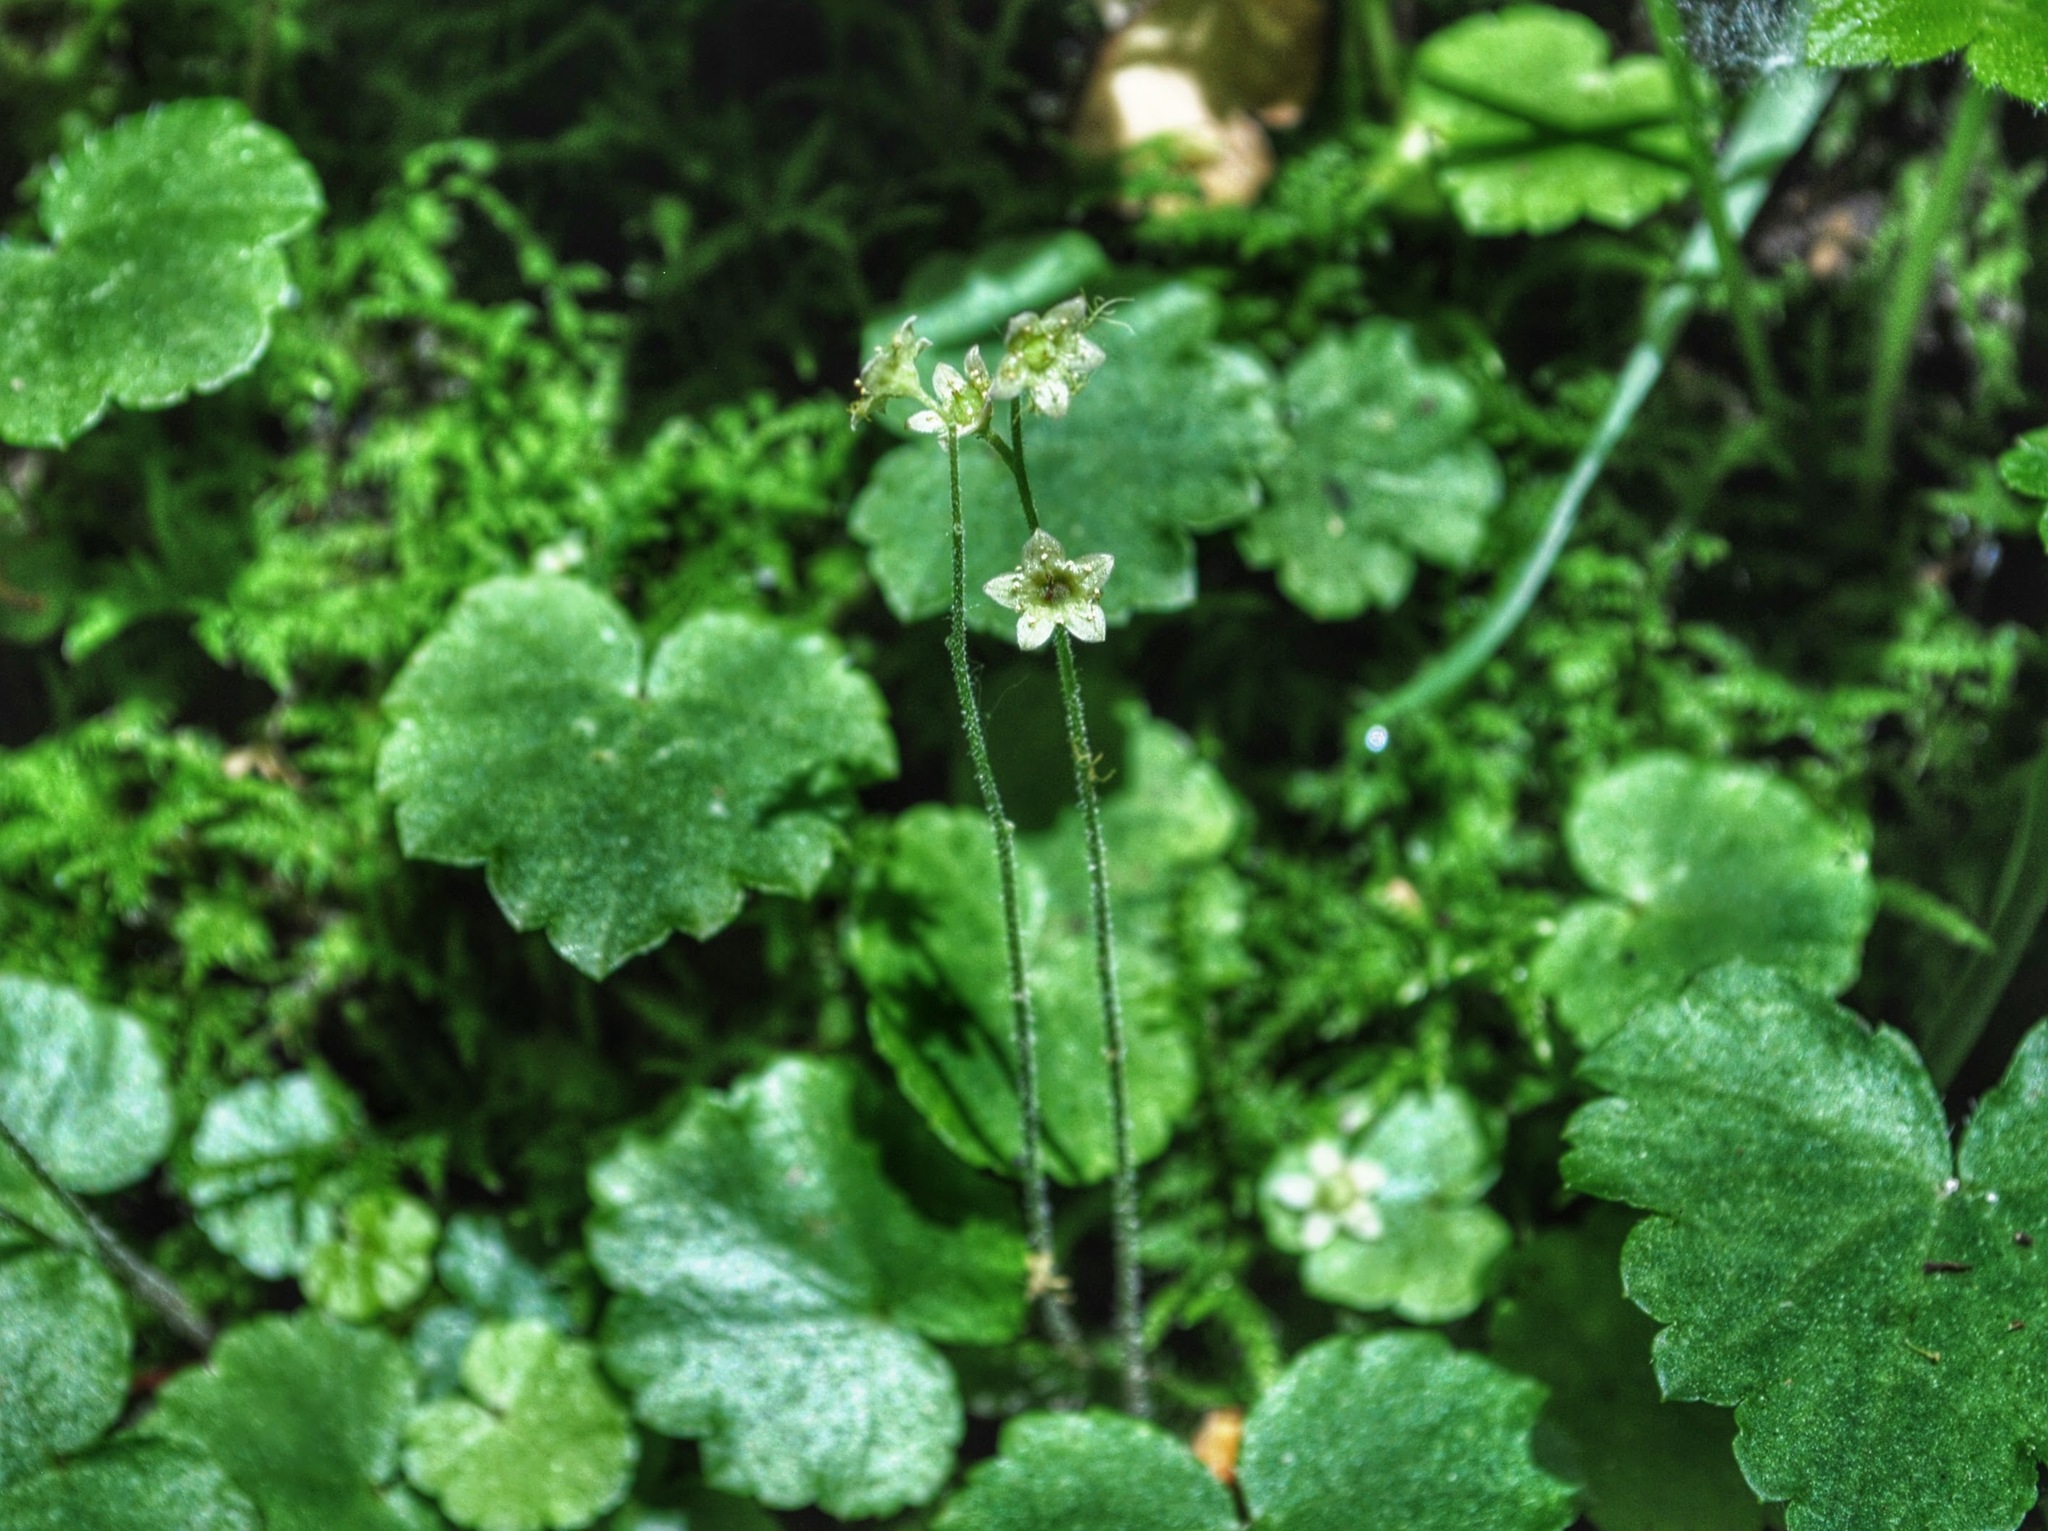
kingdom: Plantae
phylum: Tracheophyta
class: Magnoliopsida
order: Saxifragales
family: Saxifragaceae
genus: Mitella
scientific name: Mitella nuda
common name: Bare-stemmed bishop's-cap
